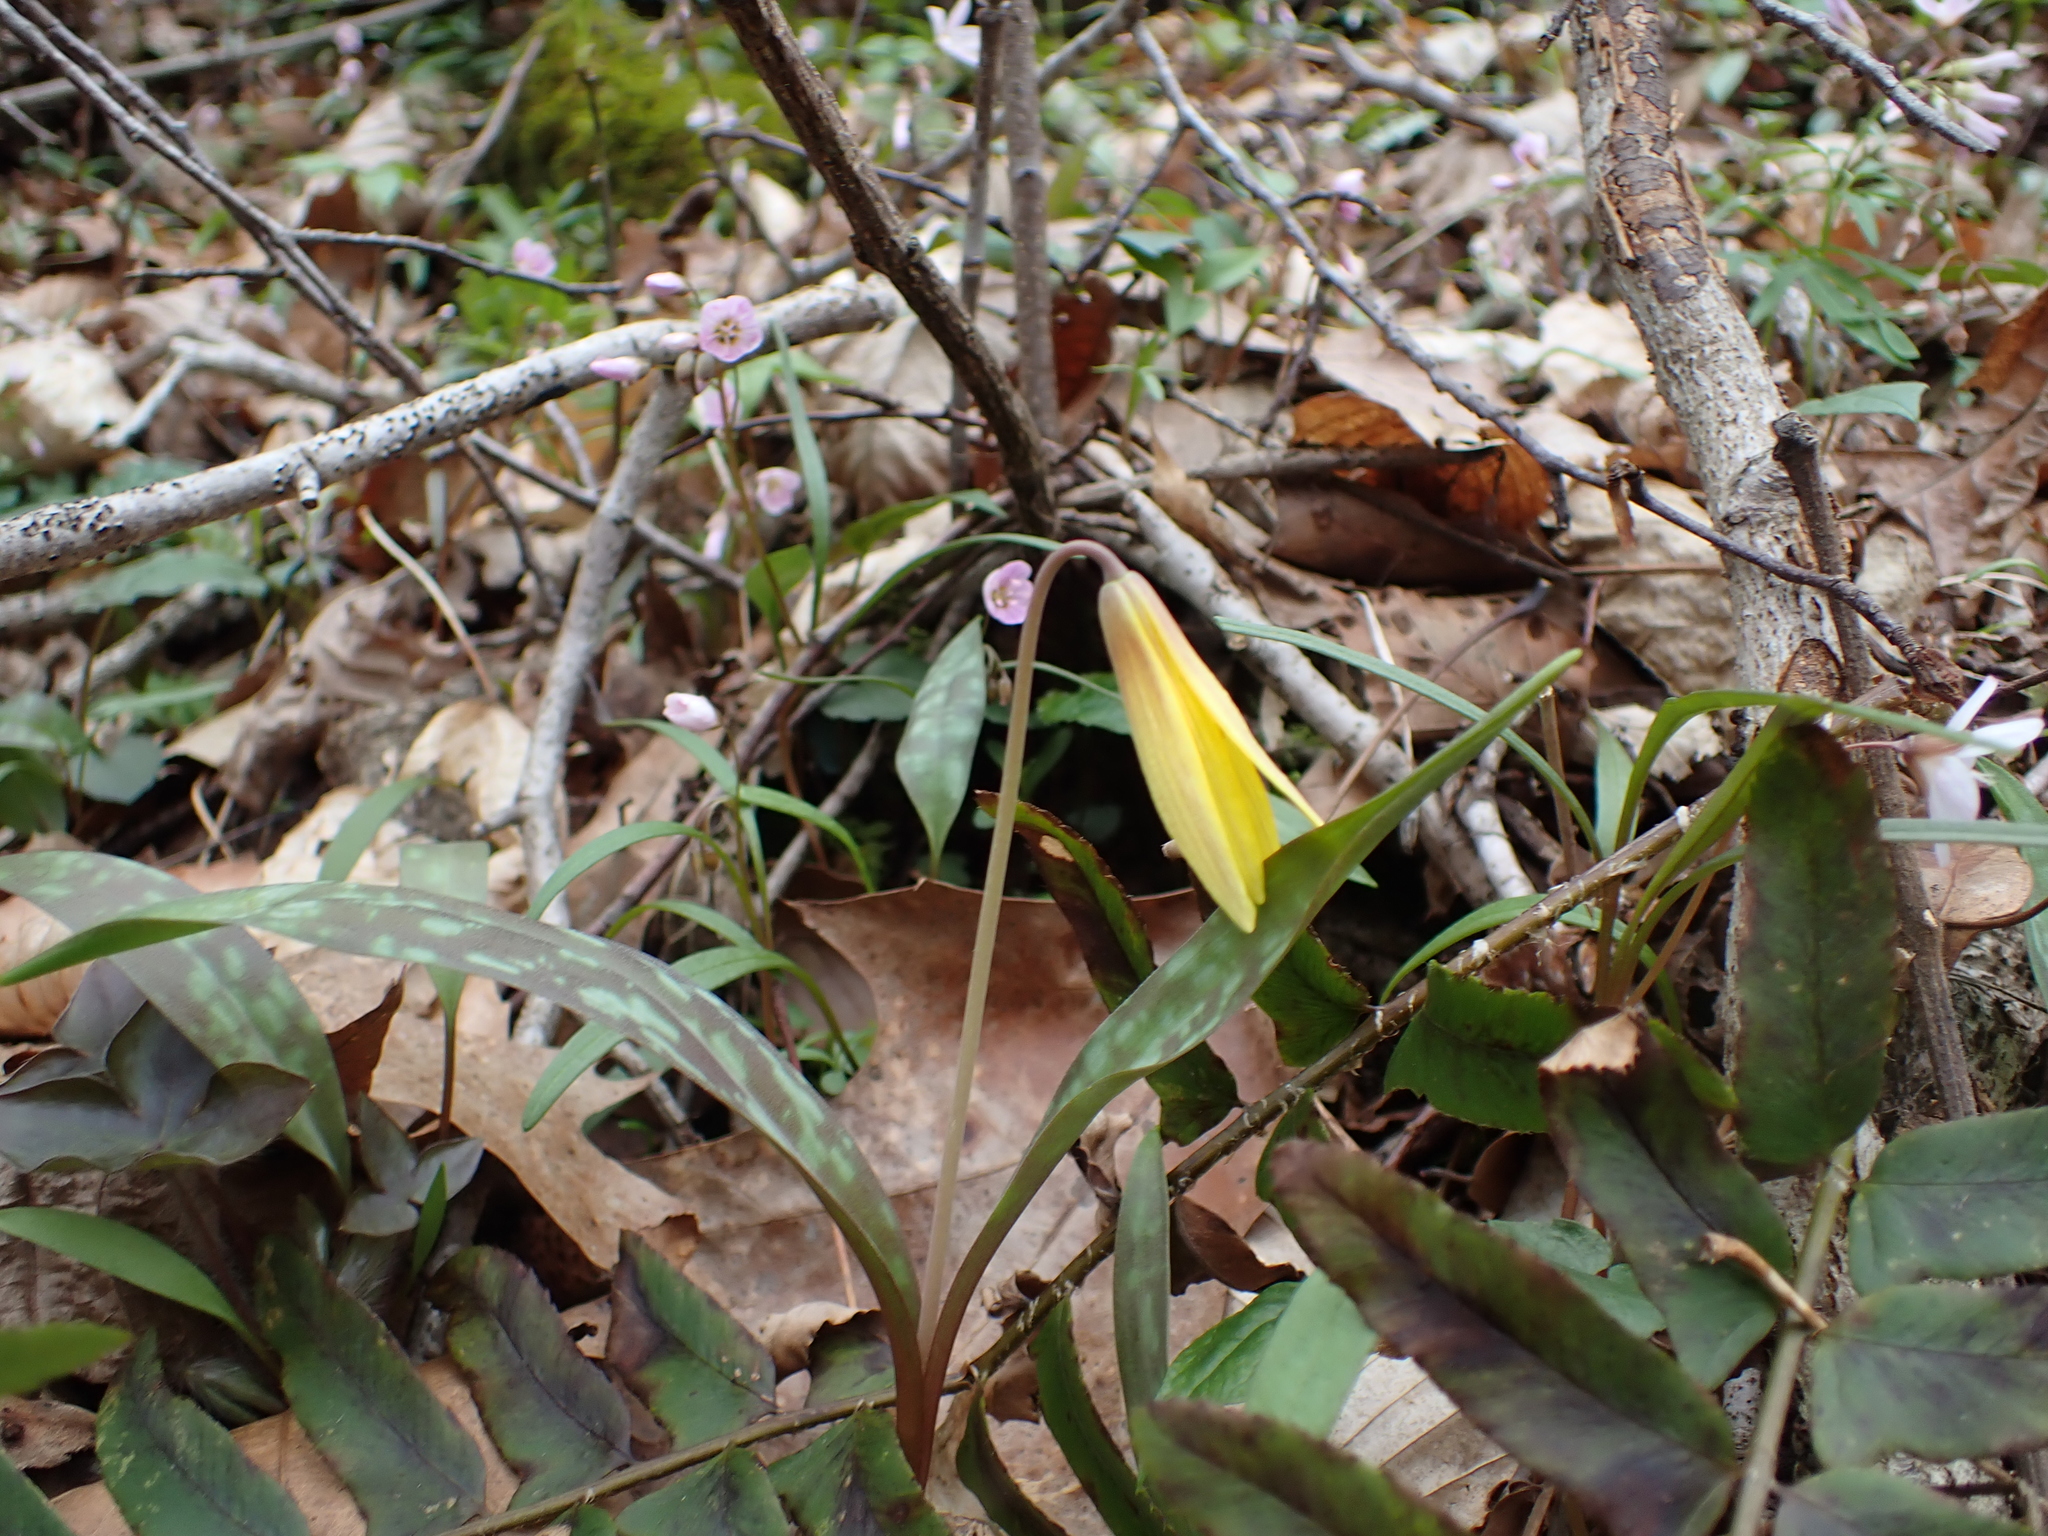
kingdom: Plantae
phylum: Tracheophyta
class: Liliopsida
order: Liliales
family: Liliaceae
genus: Erythronium
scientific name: Erythronium americanum
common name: Yellow adder's-tongue
